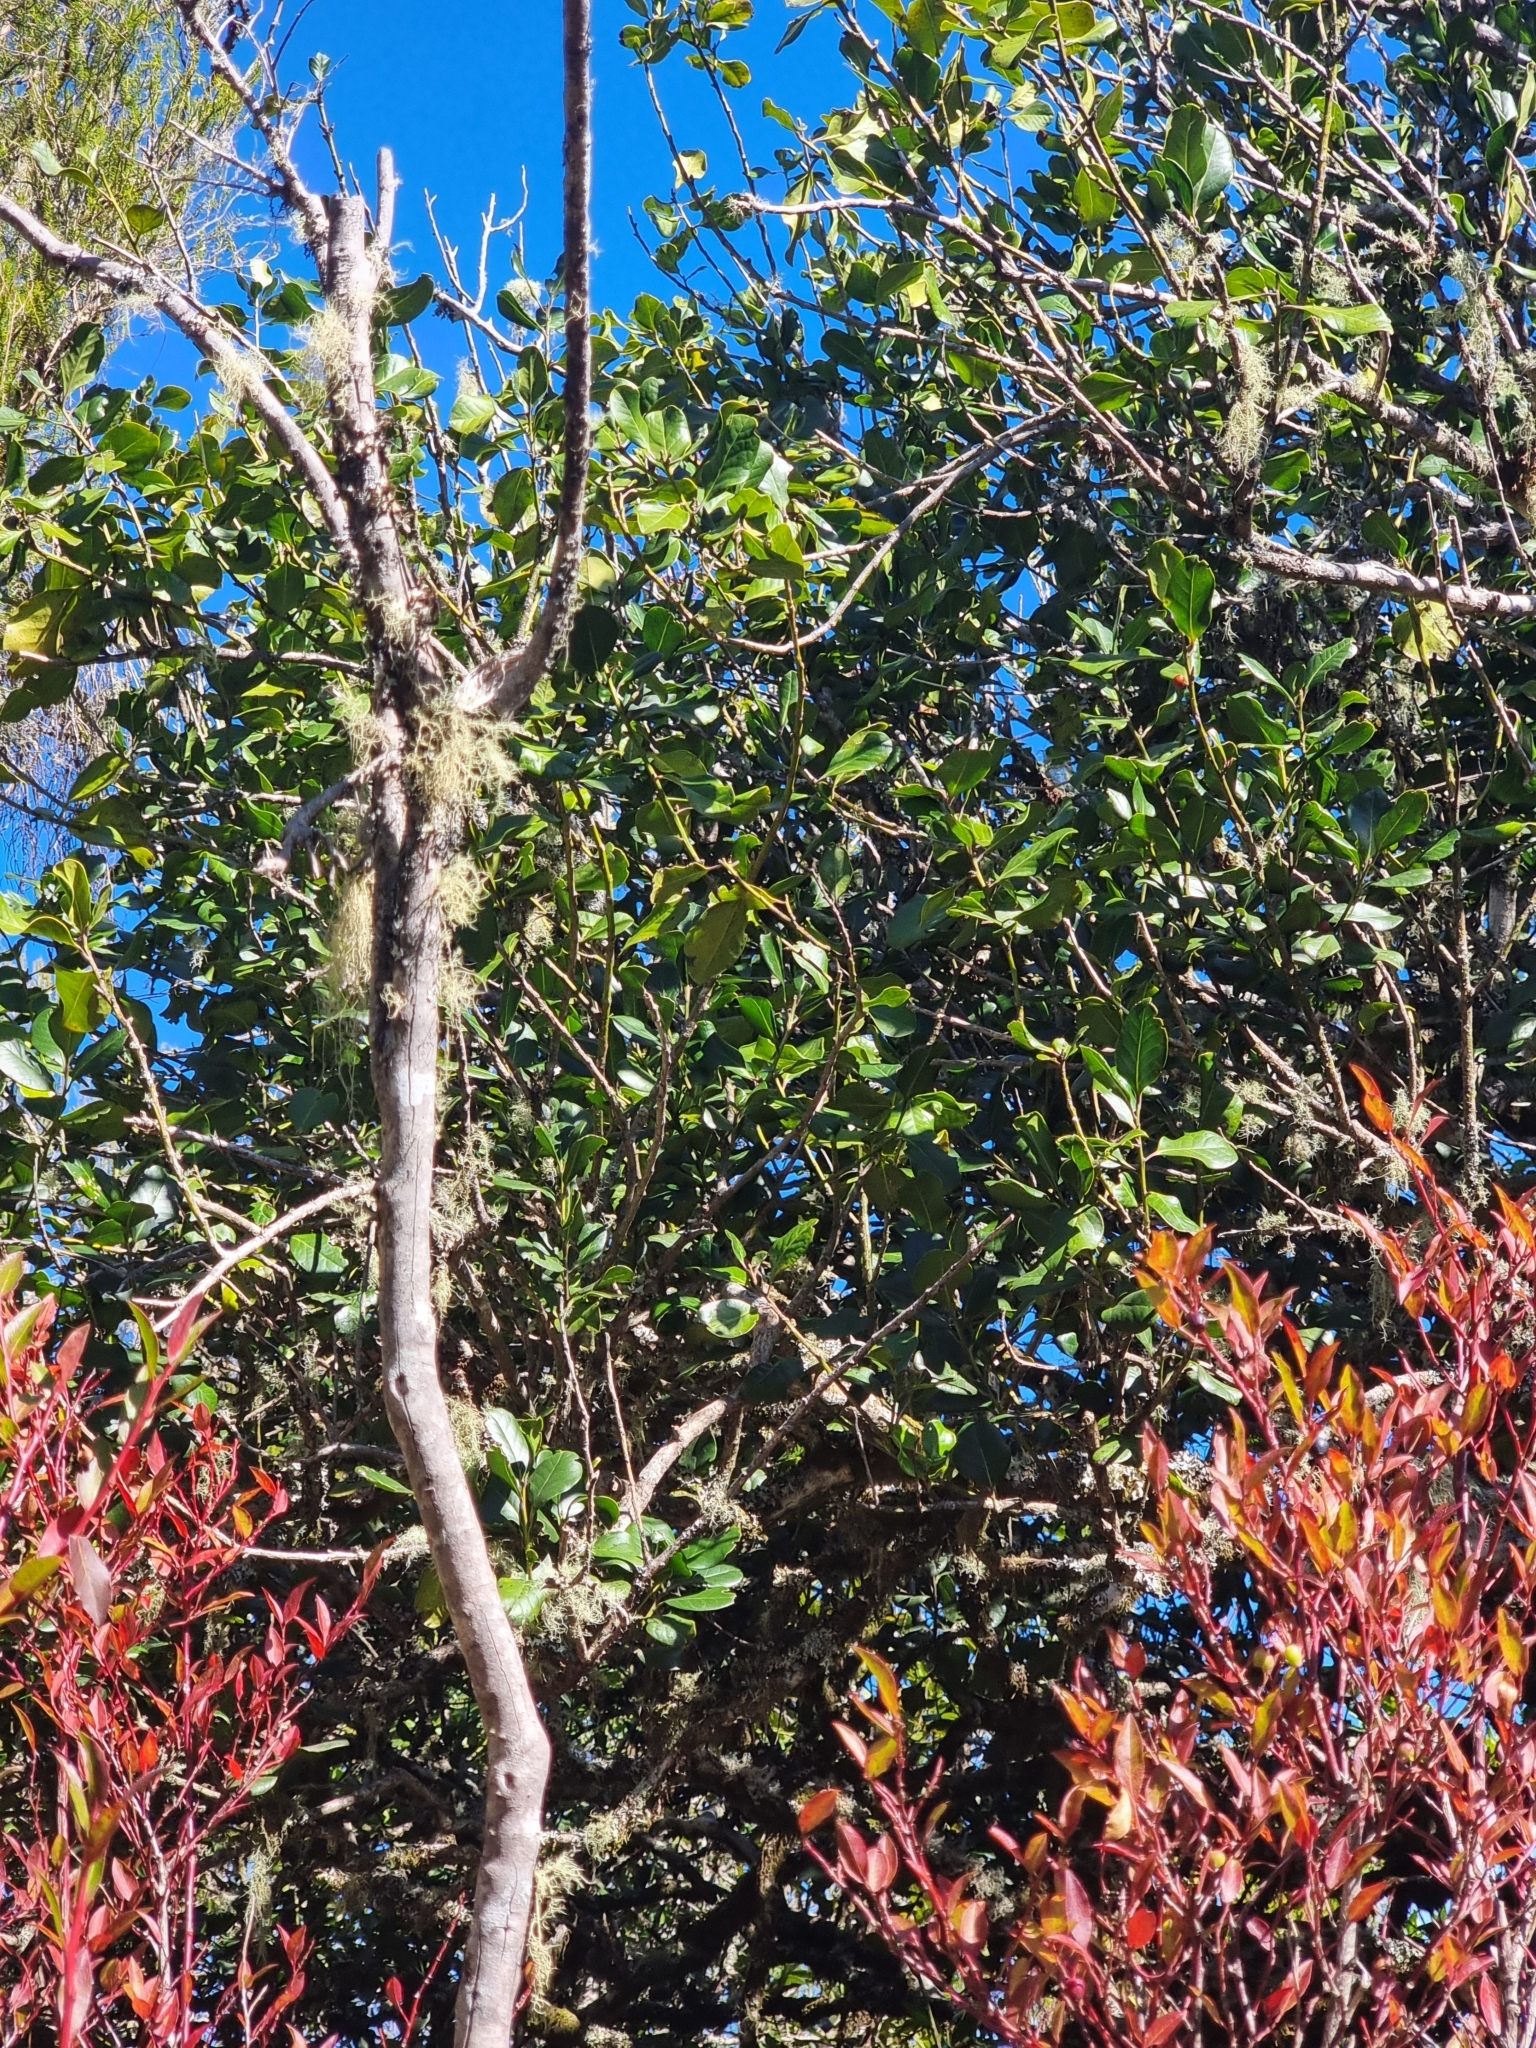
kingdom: Plantae
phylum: Tracheophyta
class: Magnoliopsida
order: Aquifoliales
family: Aquifoliaceae
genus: Ilex
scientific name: Ilex perado
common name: Madeira holly
